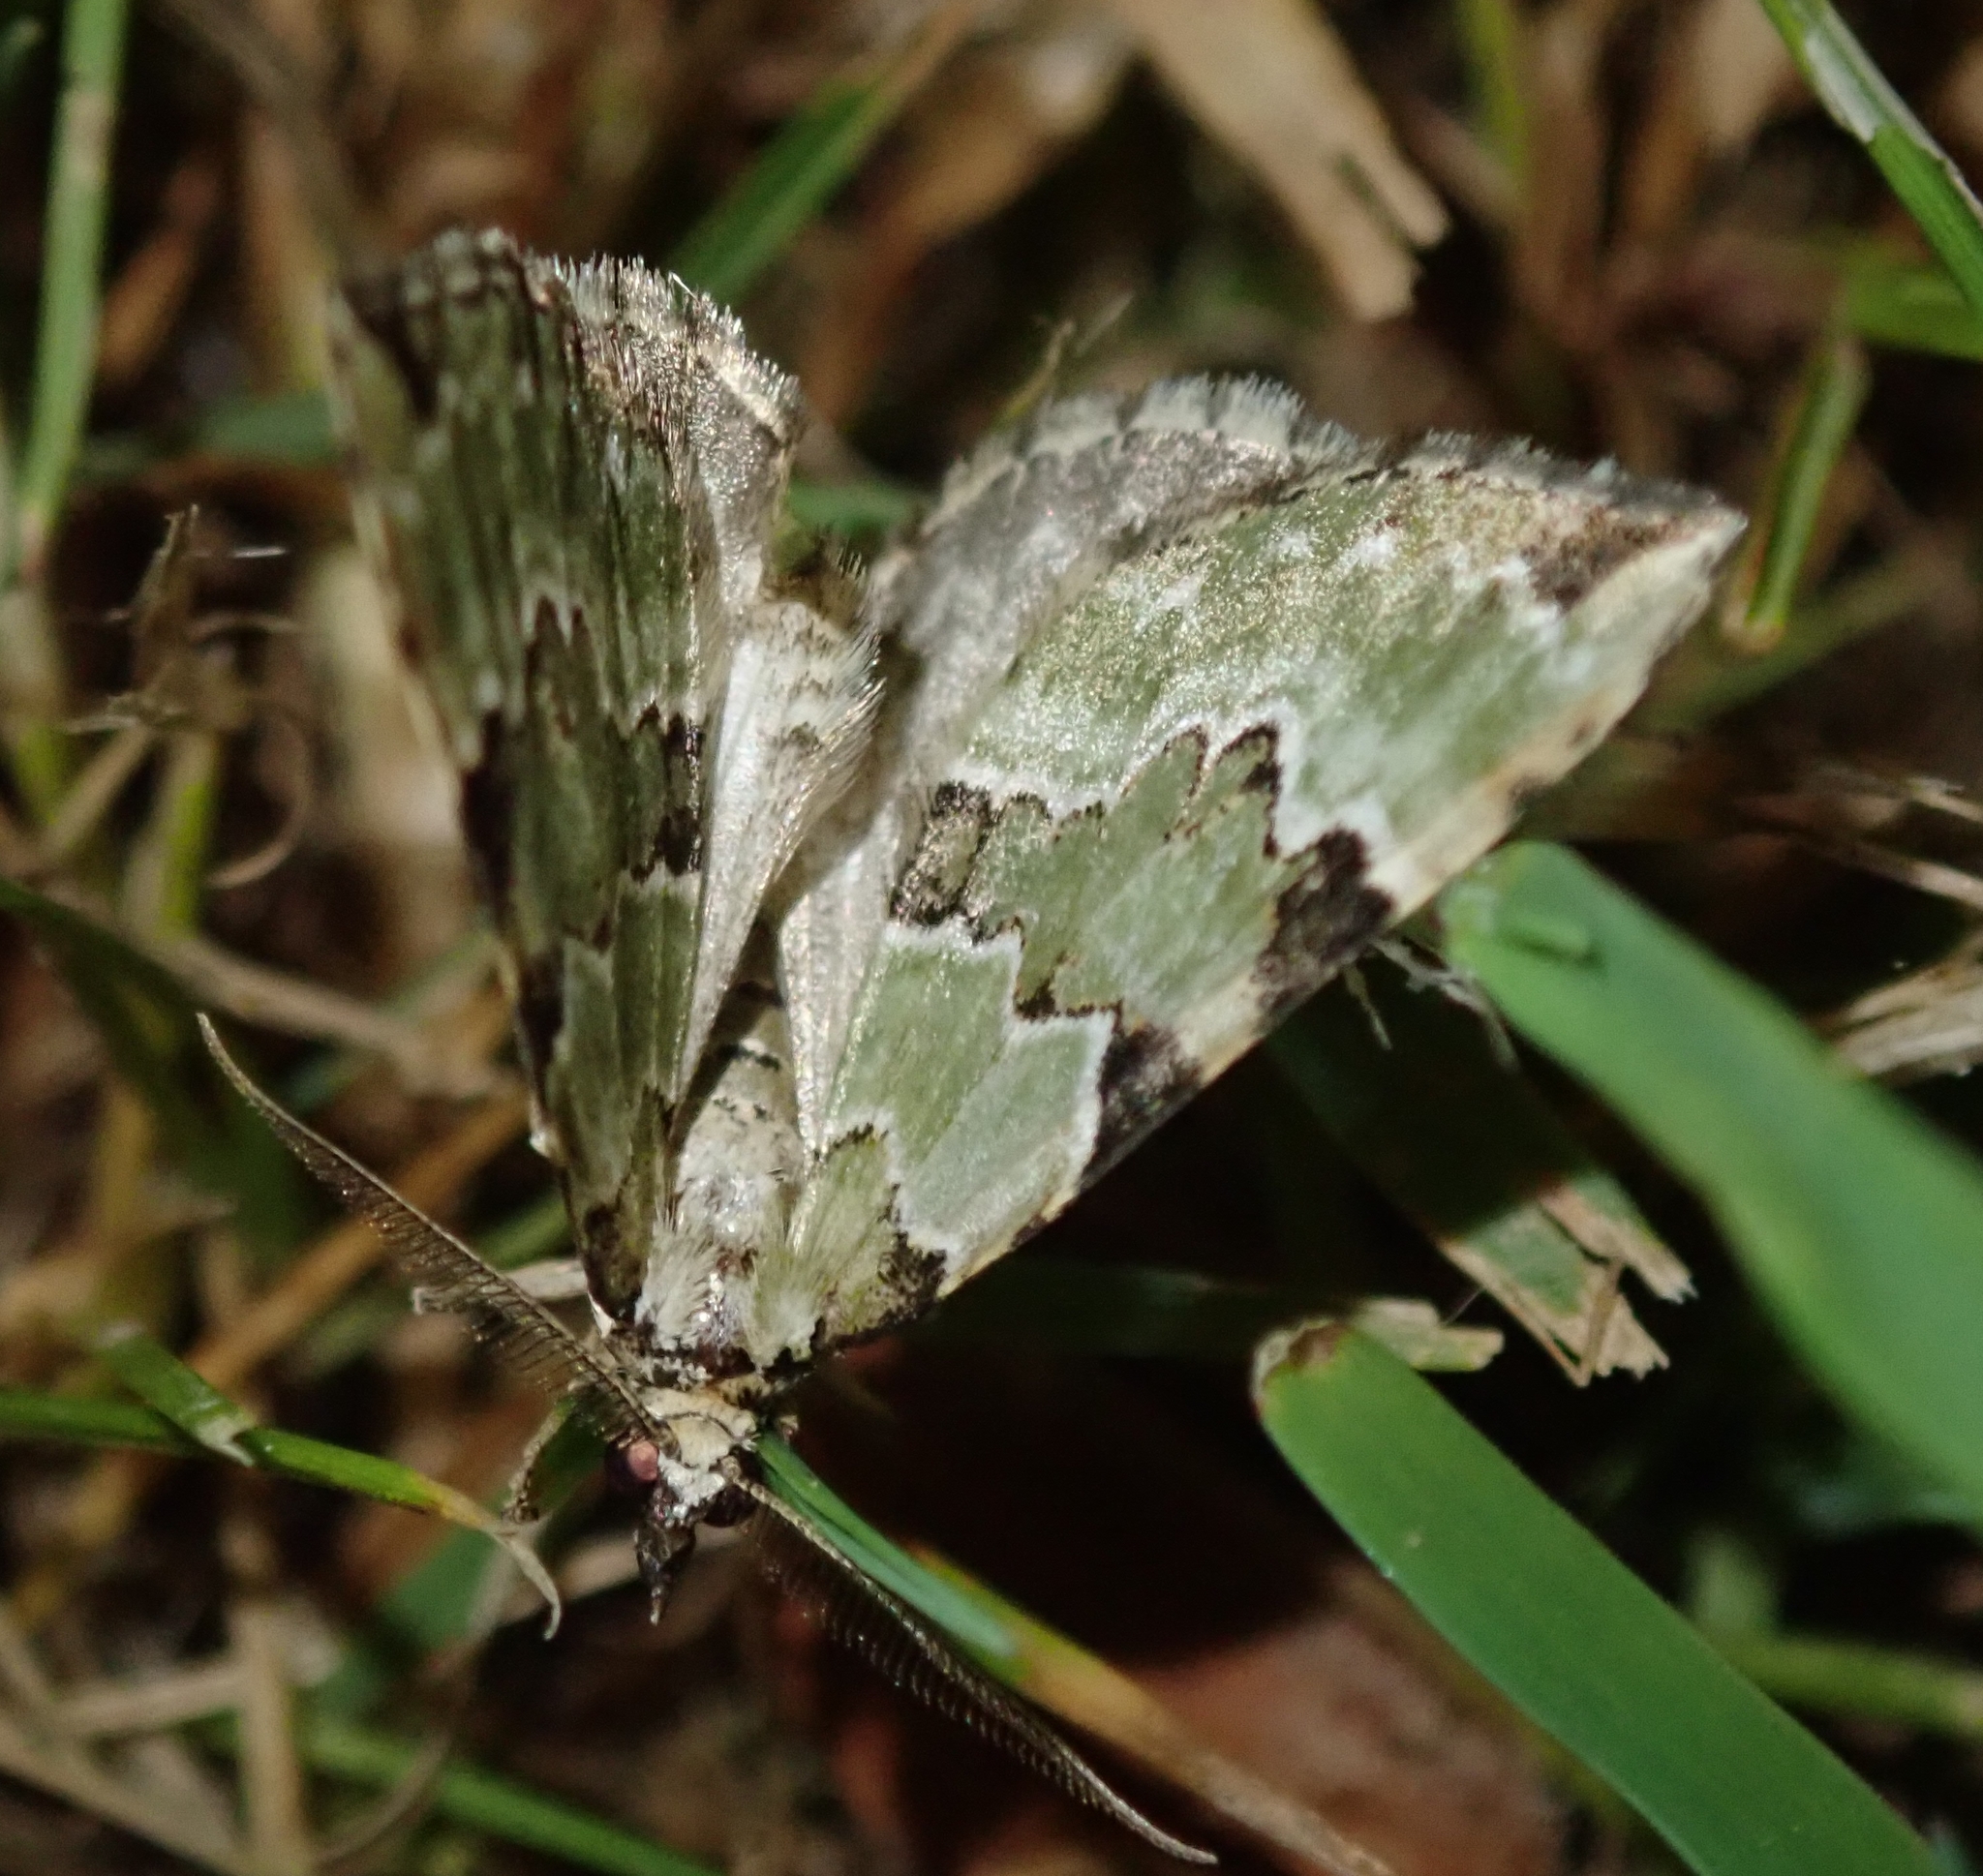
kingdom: Animalia
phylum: Arthropoda
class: Insecta
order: Lepidoptera
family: Geometridae
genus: Colostygia
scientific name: Colostygia pectinataria
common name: Green carpet
